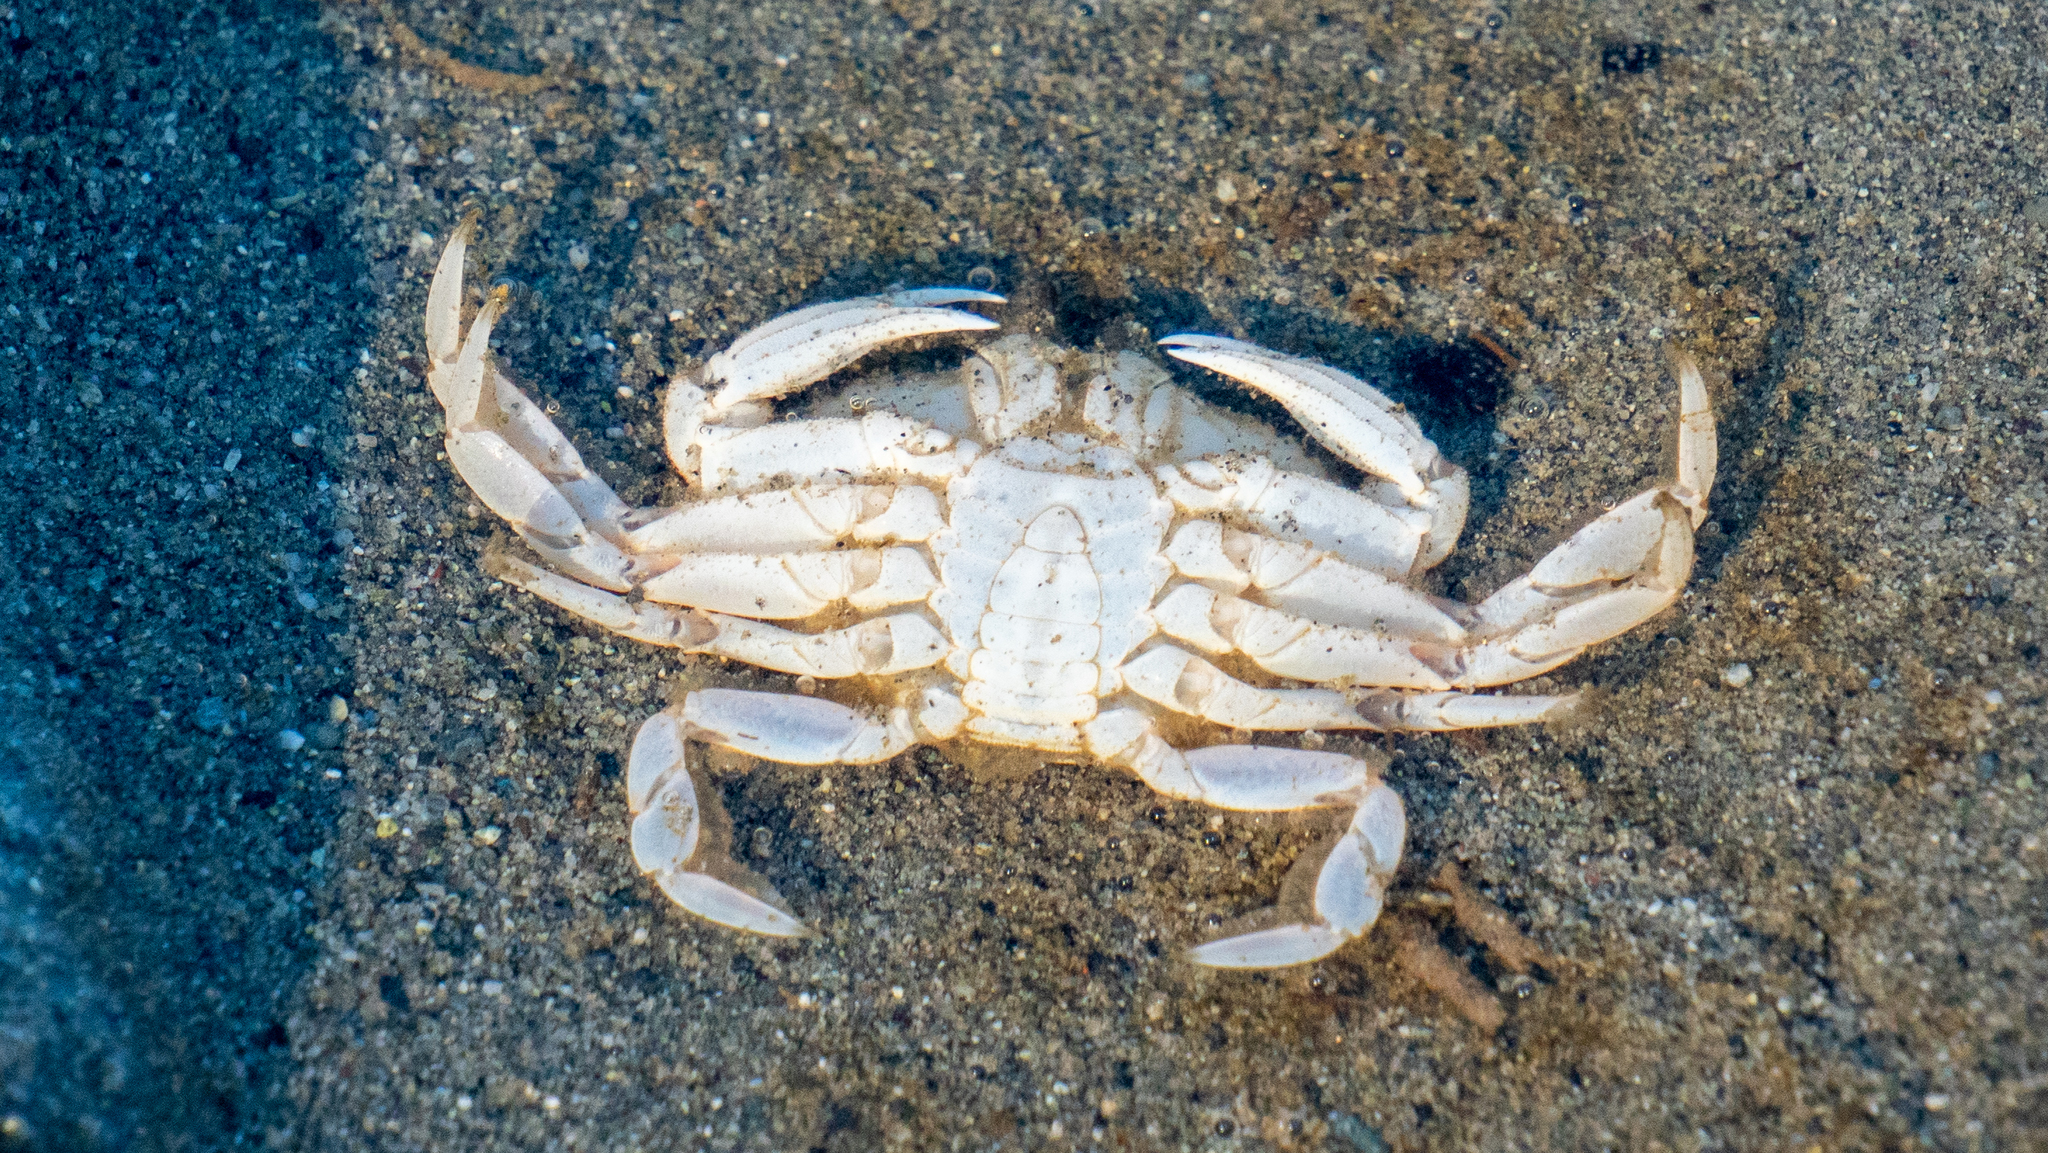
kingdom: Animalia
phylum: Arthropoda
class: Malacostraca
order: Decapoda
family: Cancridae
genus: Metacarcinus
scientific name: Metacarcinus magister
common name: Californian crab
